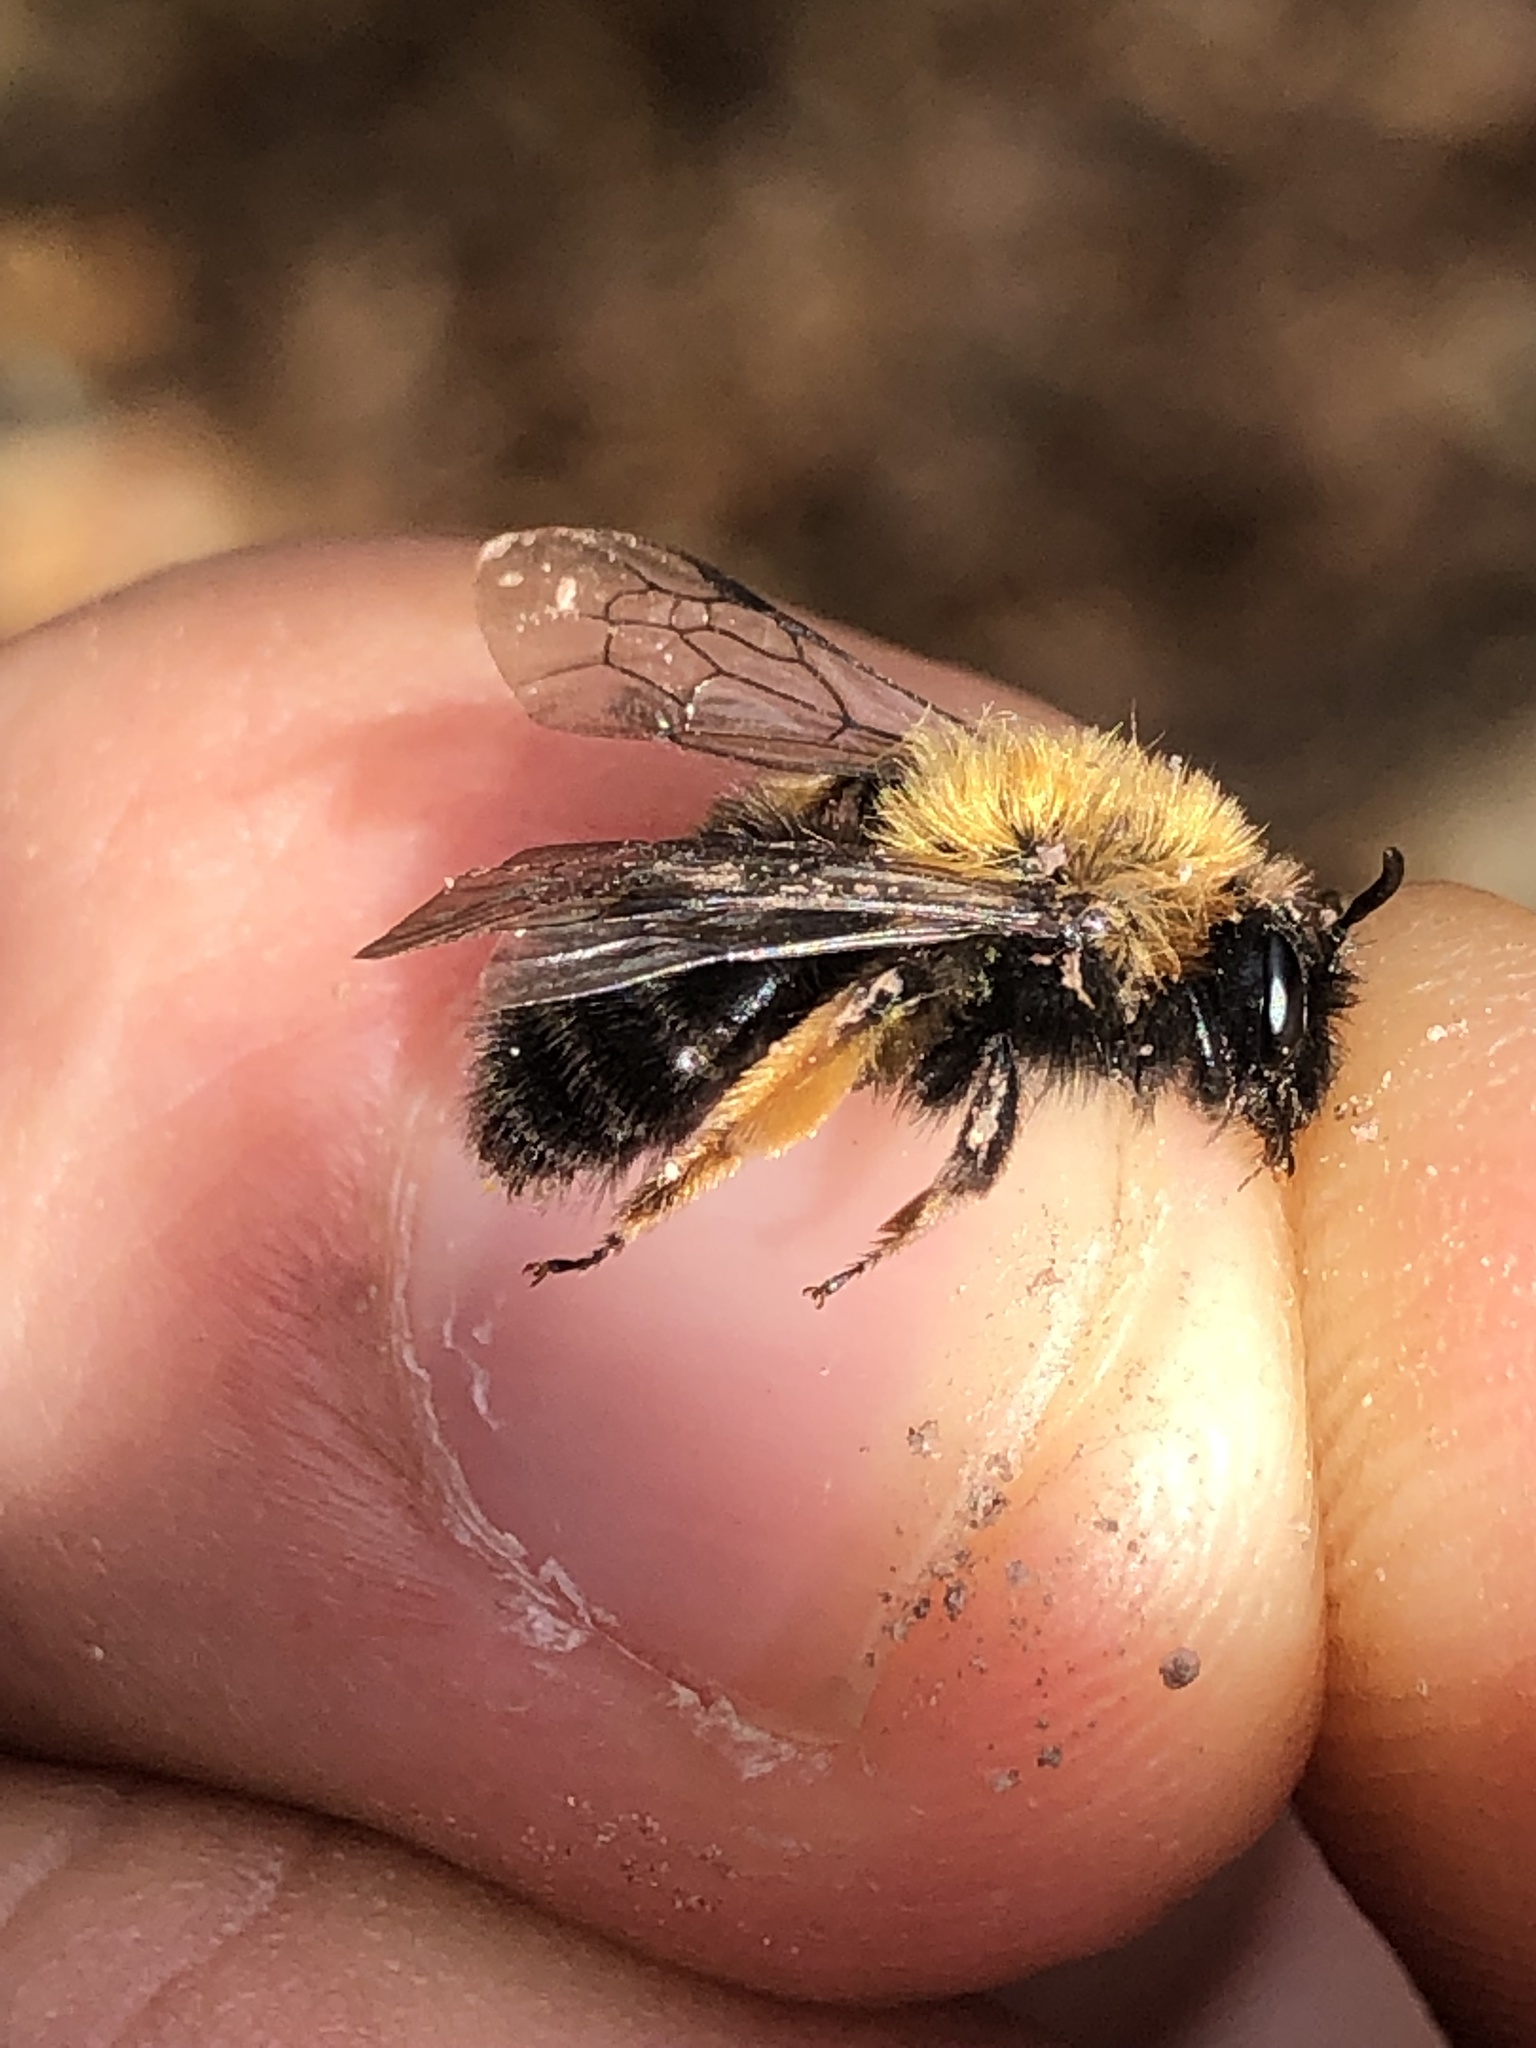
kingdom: Animalia
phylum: Arthropoda
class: Insecta
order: Hymenoptera
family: Andrenidae
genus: Andrena
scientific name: Andrena clarkella
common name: Clarke's mining bee
